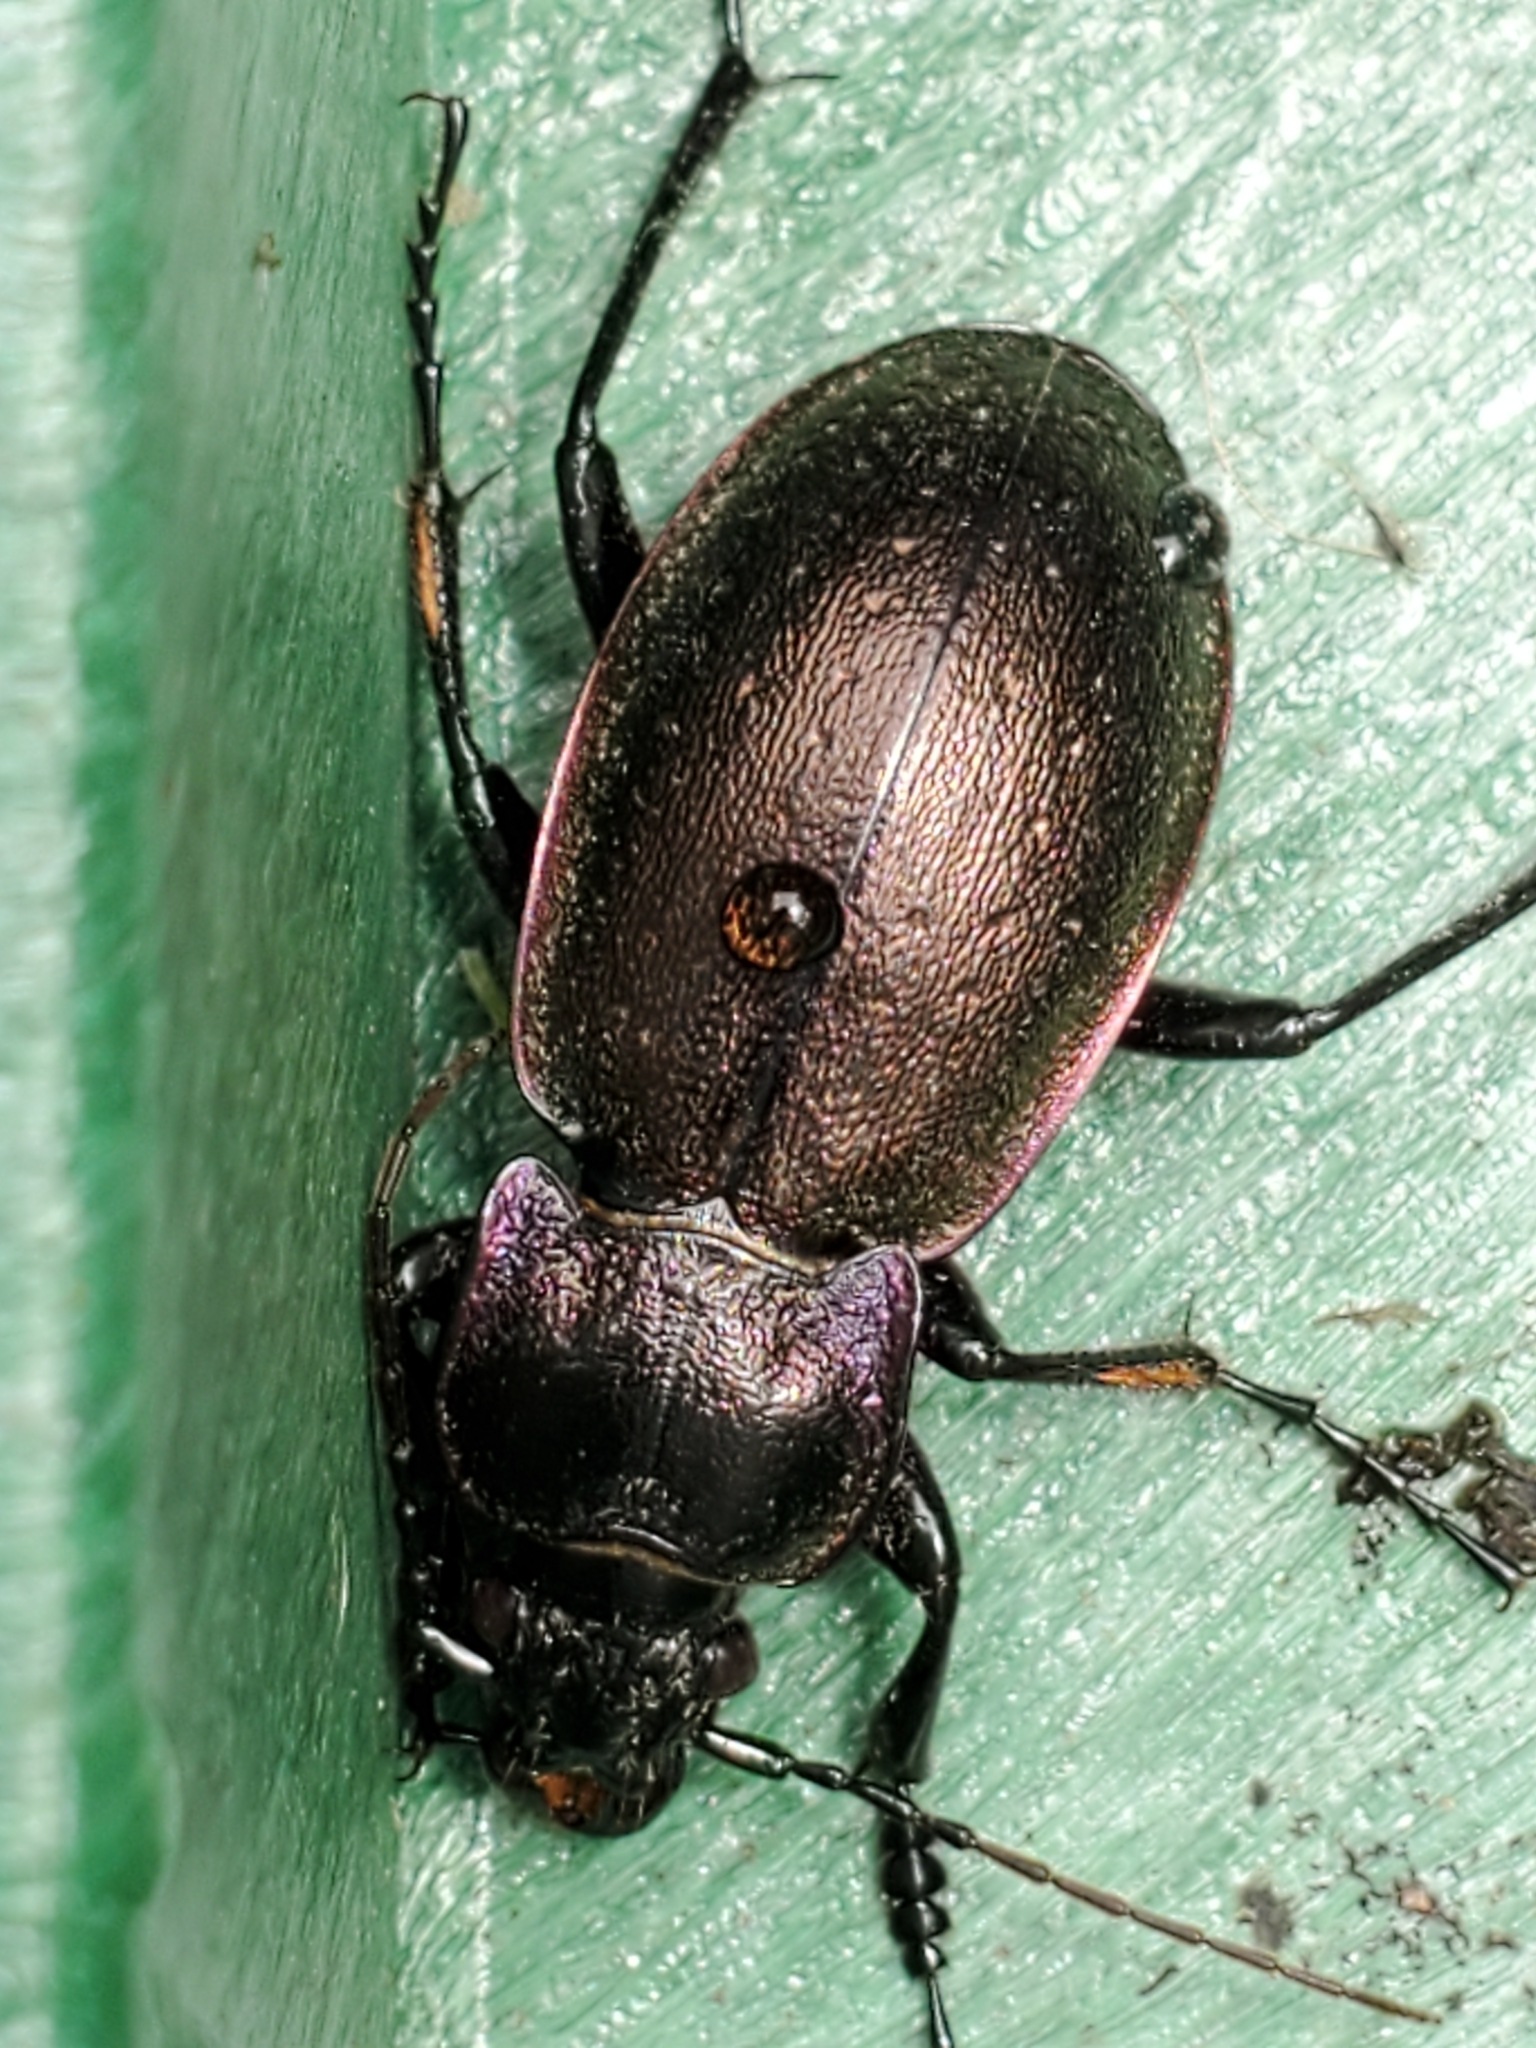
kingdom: Animalia
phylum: Arthropoda
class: Insecta
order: Coleoptera
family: Carabidae
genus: Carabus
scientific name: Carabus nemoralis
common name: European ground beetle
